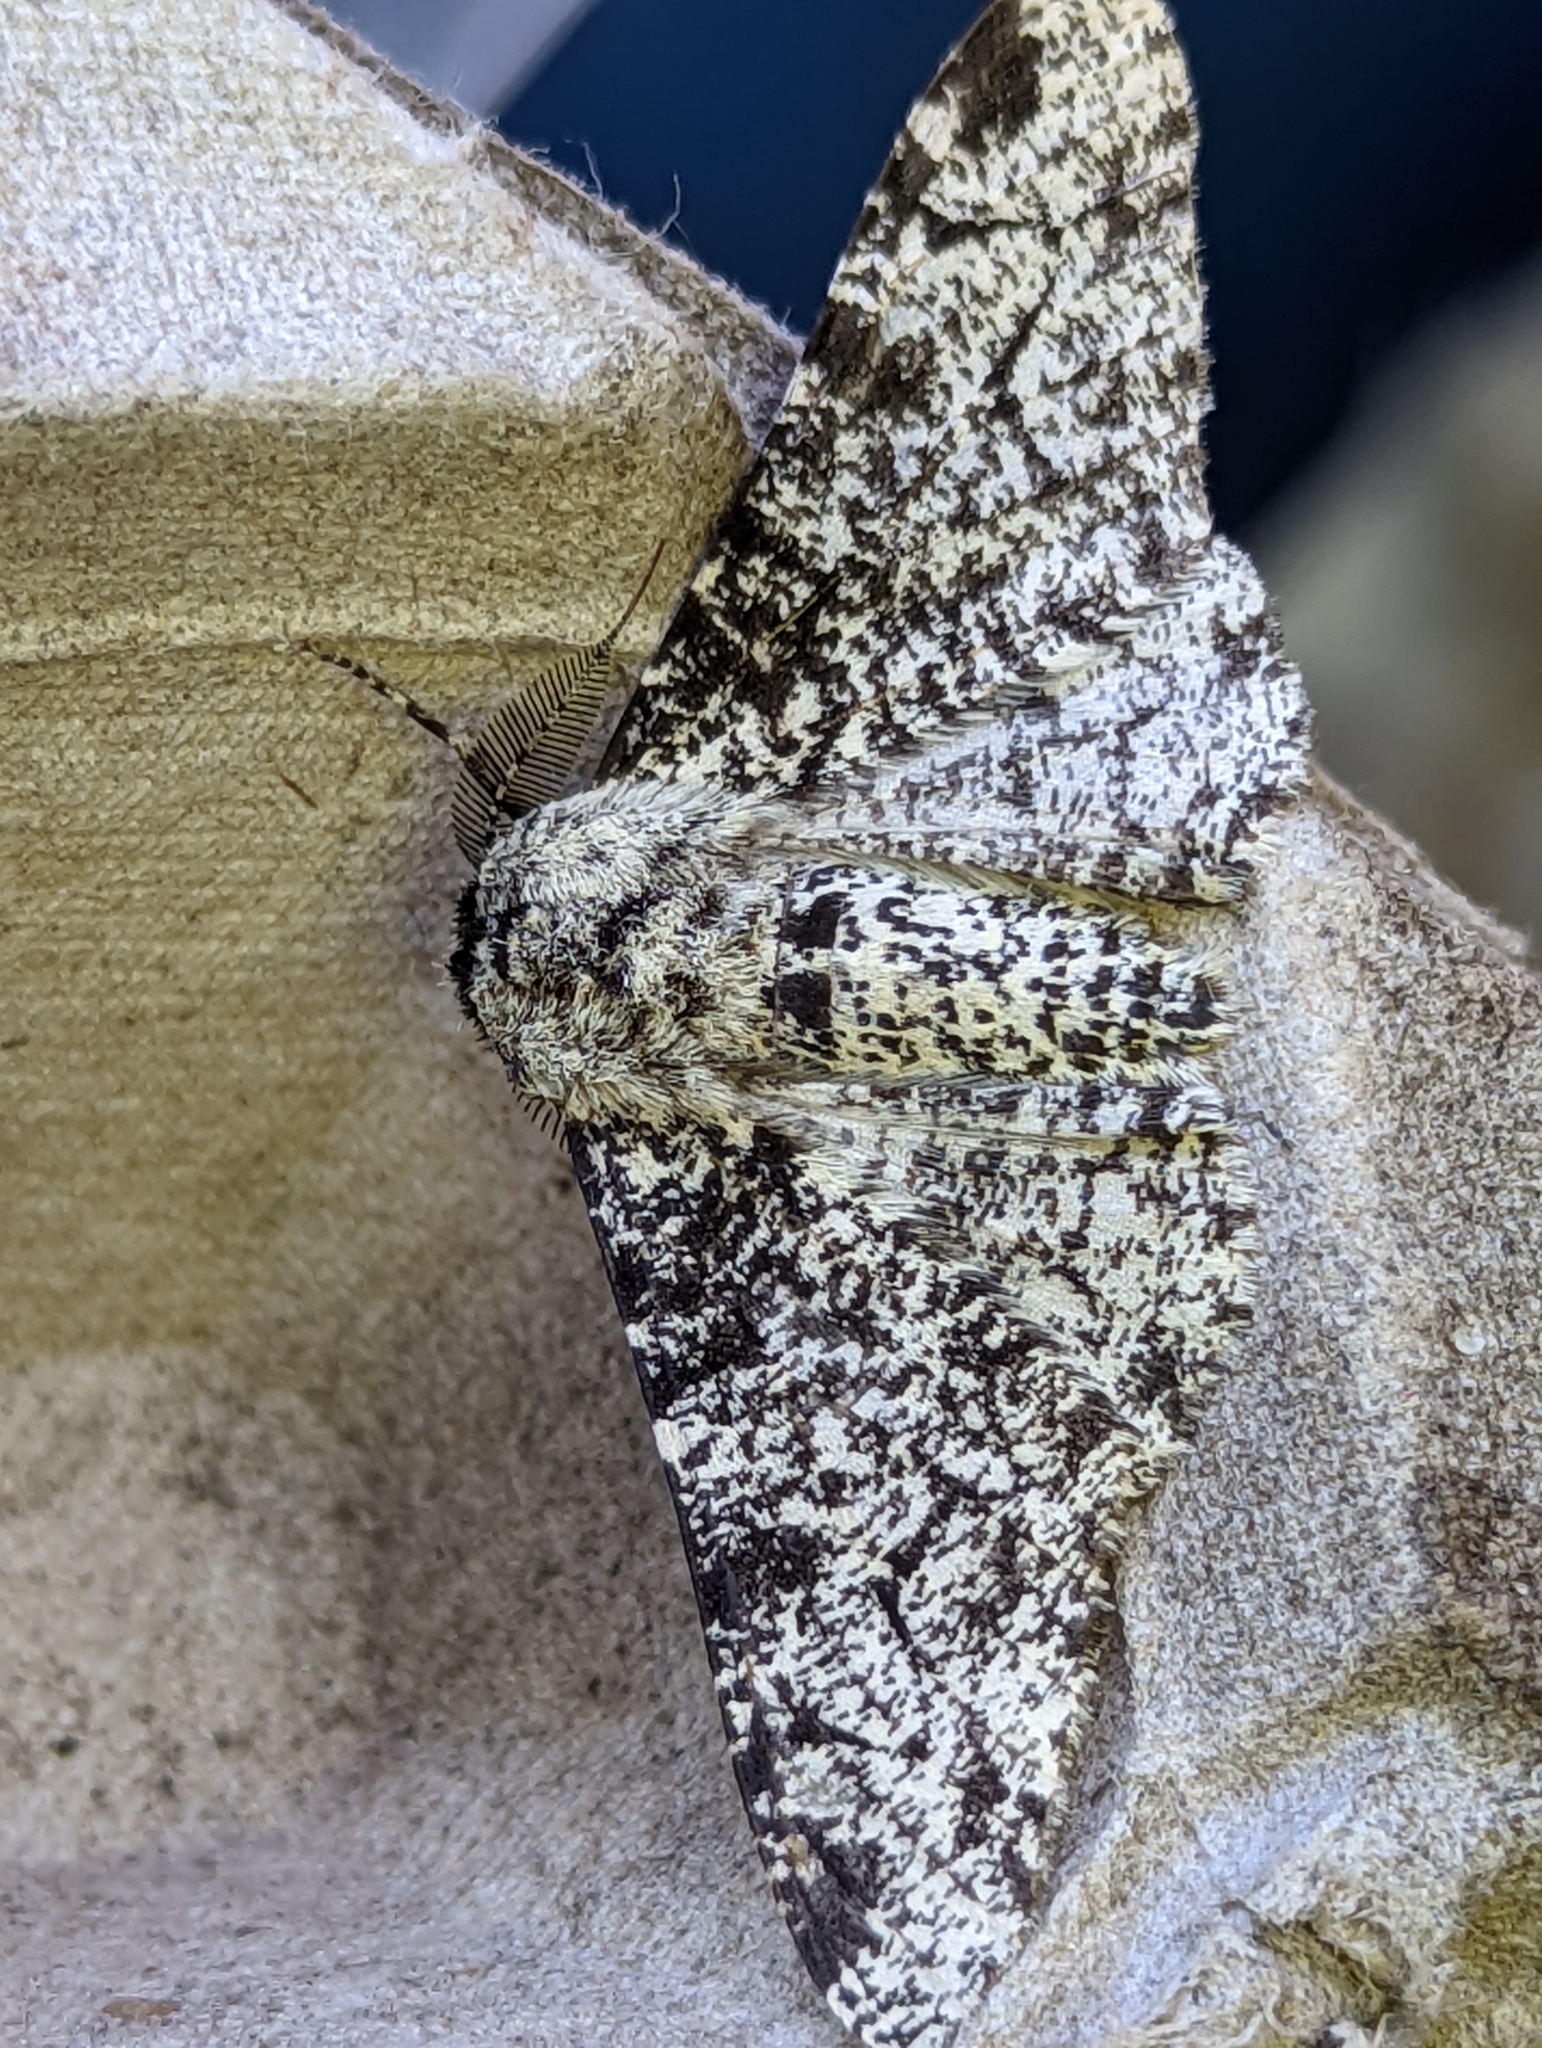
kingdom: Animalia
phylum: Arthropoda
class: Insecta
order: Lepidoptera
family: Geometridae
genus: Biston
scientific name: Biston betularia
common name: Peppered moth
